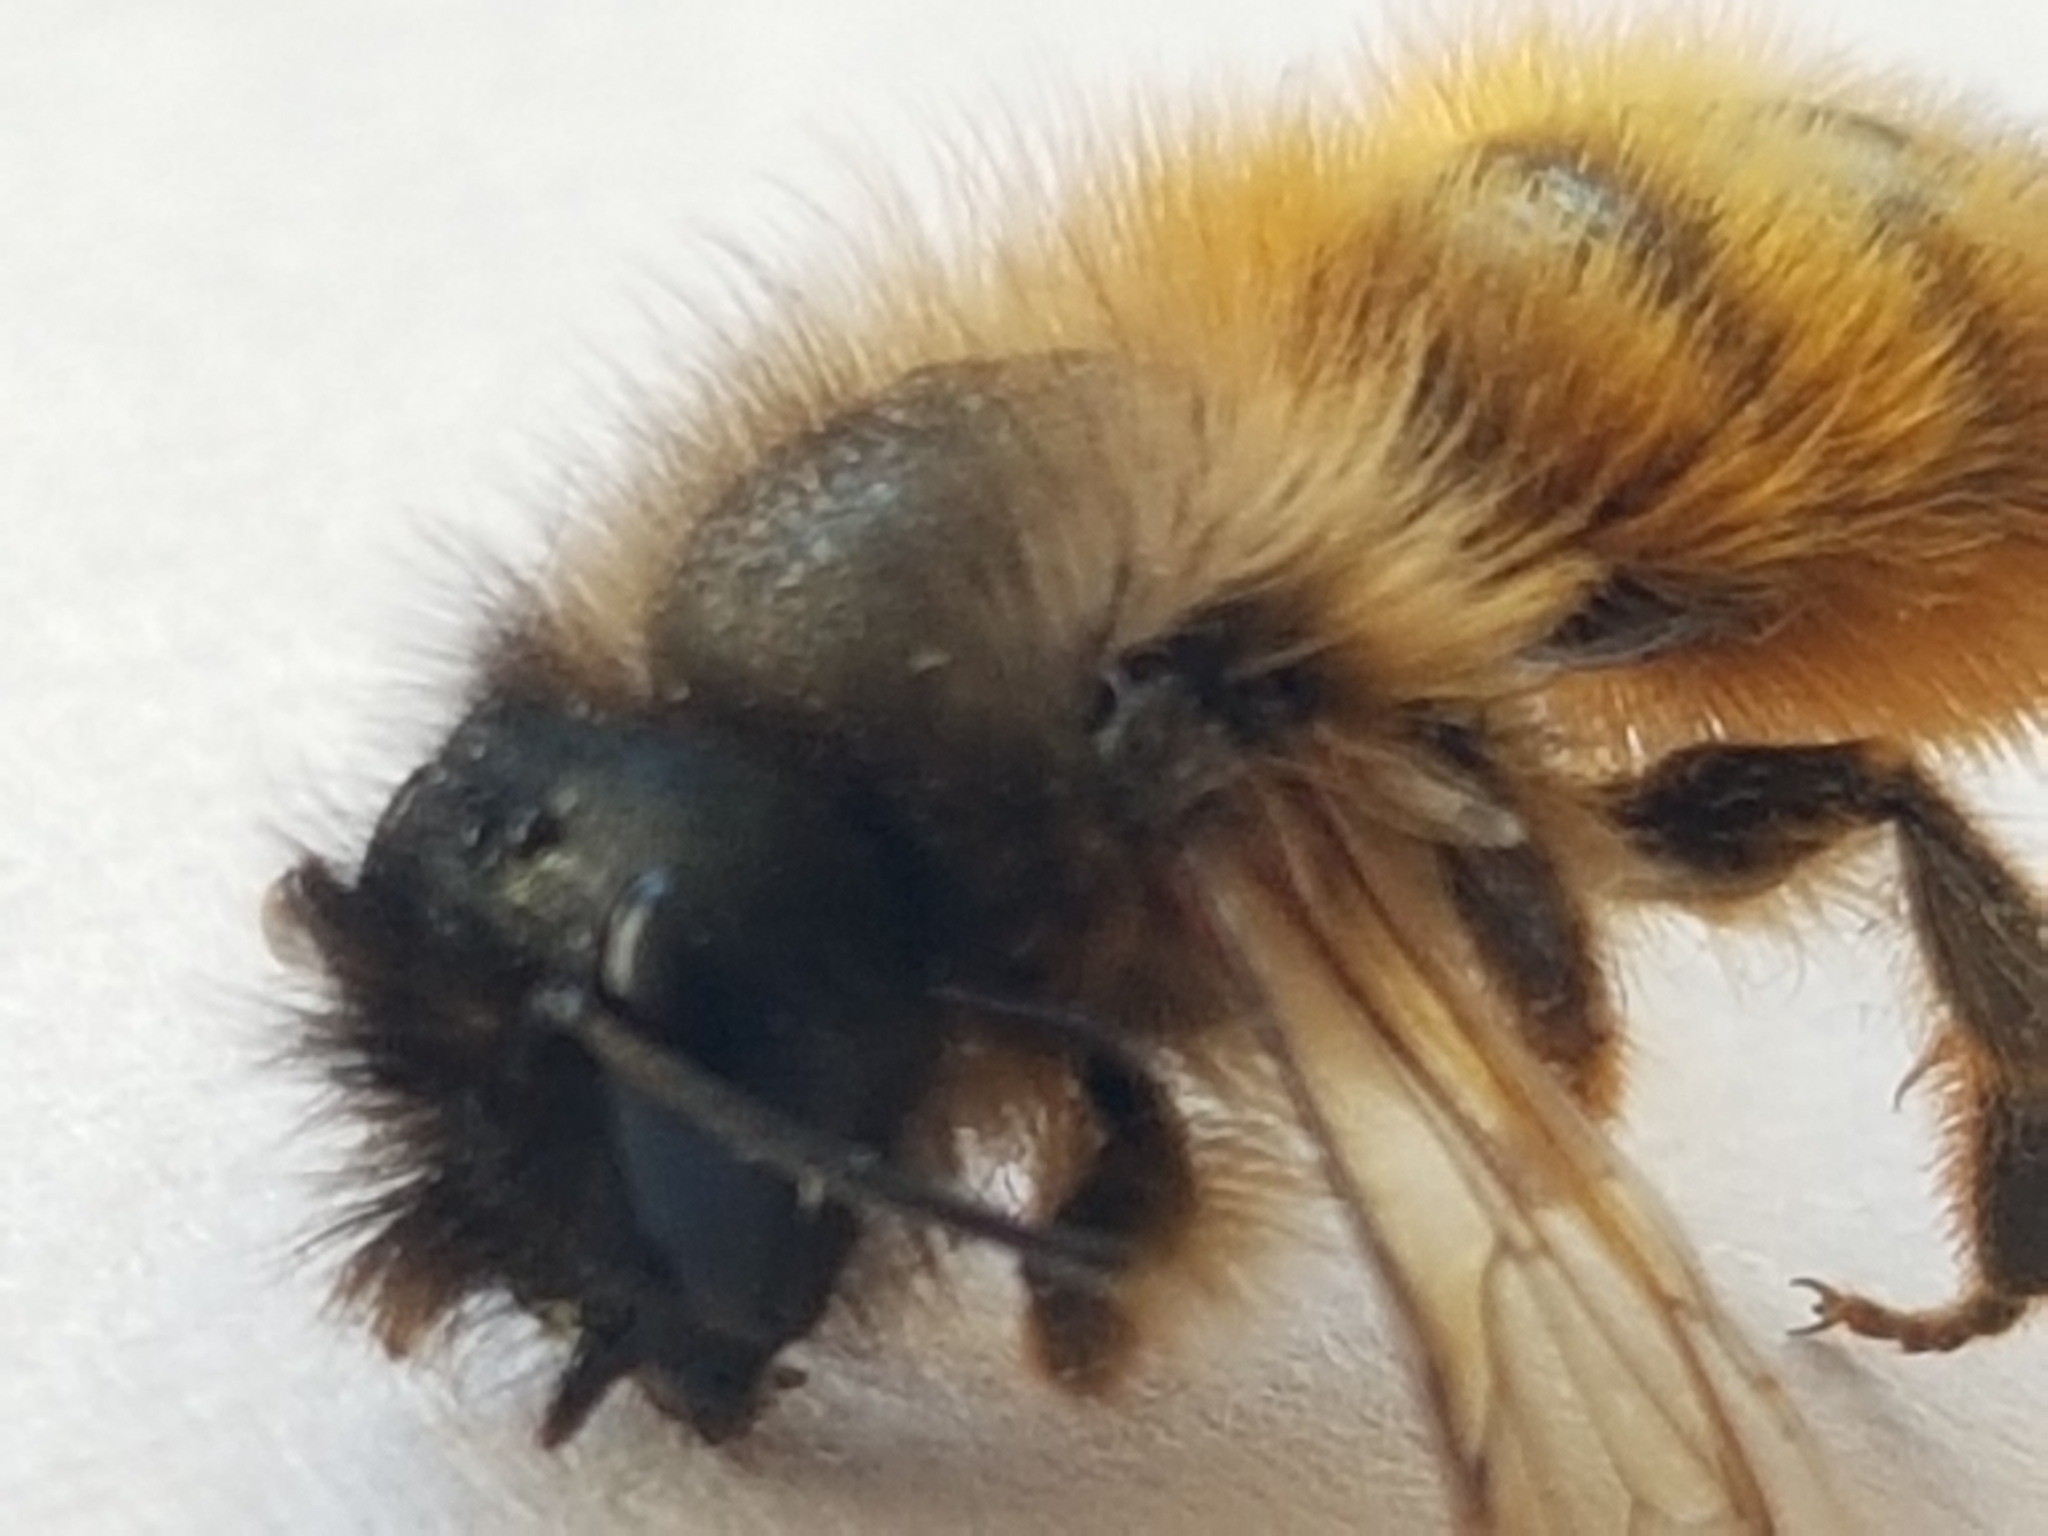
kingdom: Animalia
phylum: Arthropoda
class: Insecta
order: Hymenoptera
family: Megachilidae
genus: Osmia
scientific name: Osmia bicornis
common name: Red mason bee
